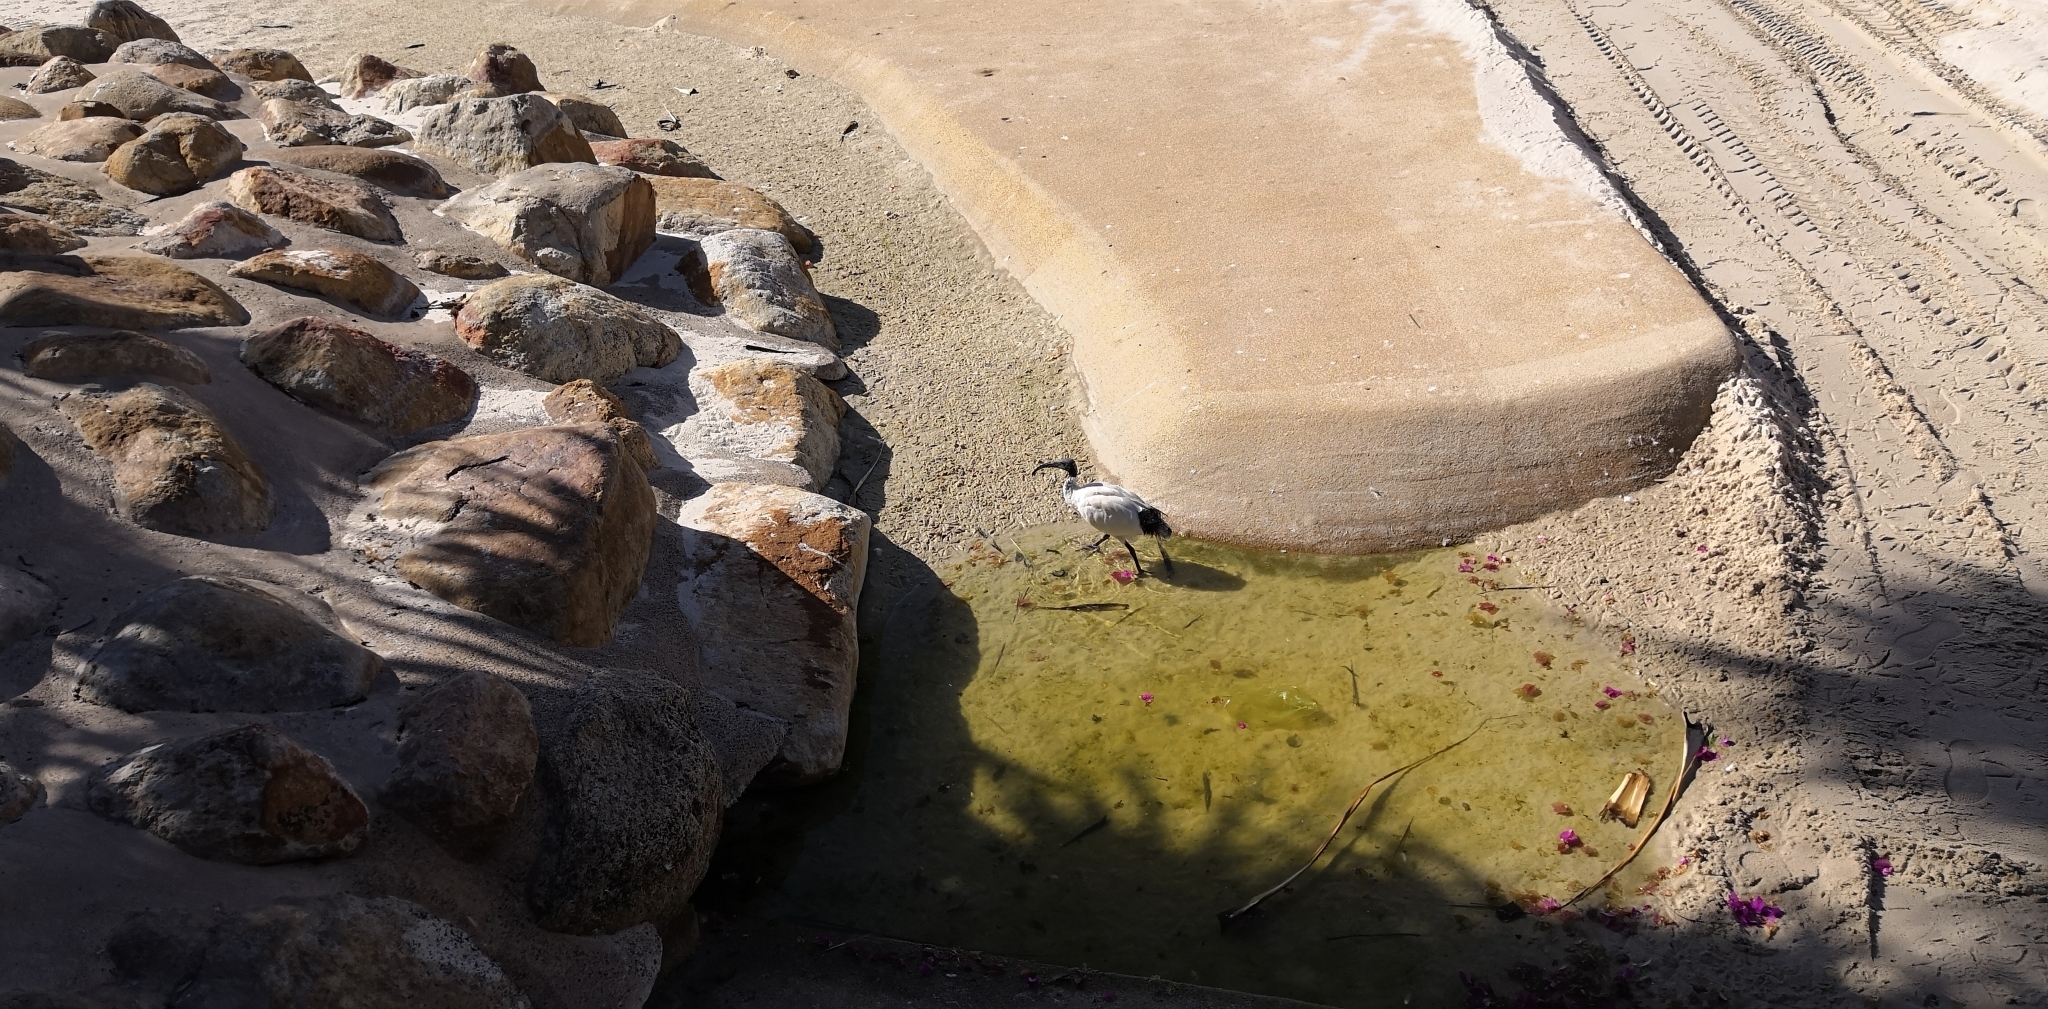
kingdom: Animalia
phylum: Chordata
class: Aves
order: Pelecaniformes
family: Threskiornithidae
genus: Threskiornis
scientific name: Threskiornis molucca
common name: Australian white ibis
